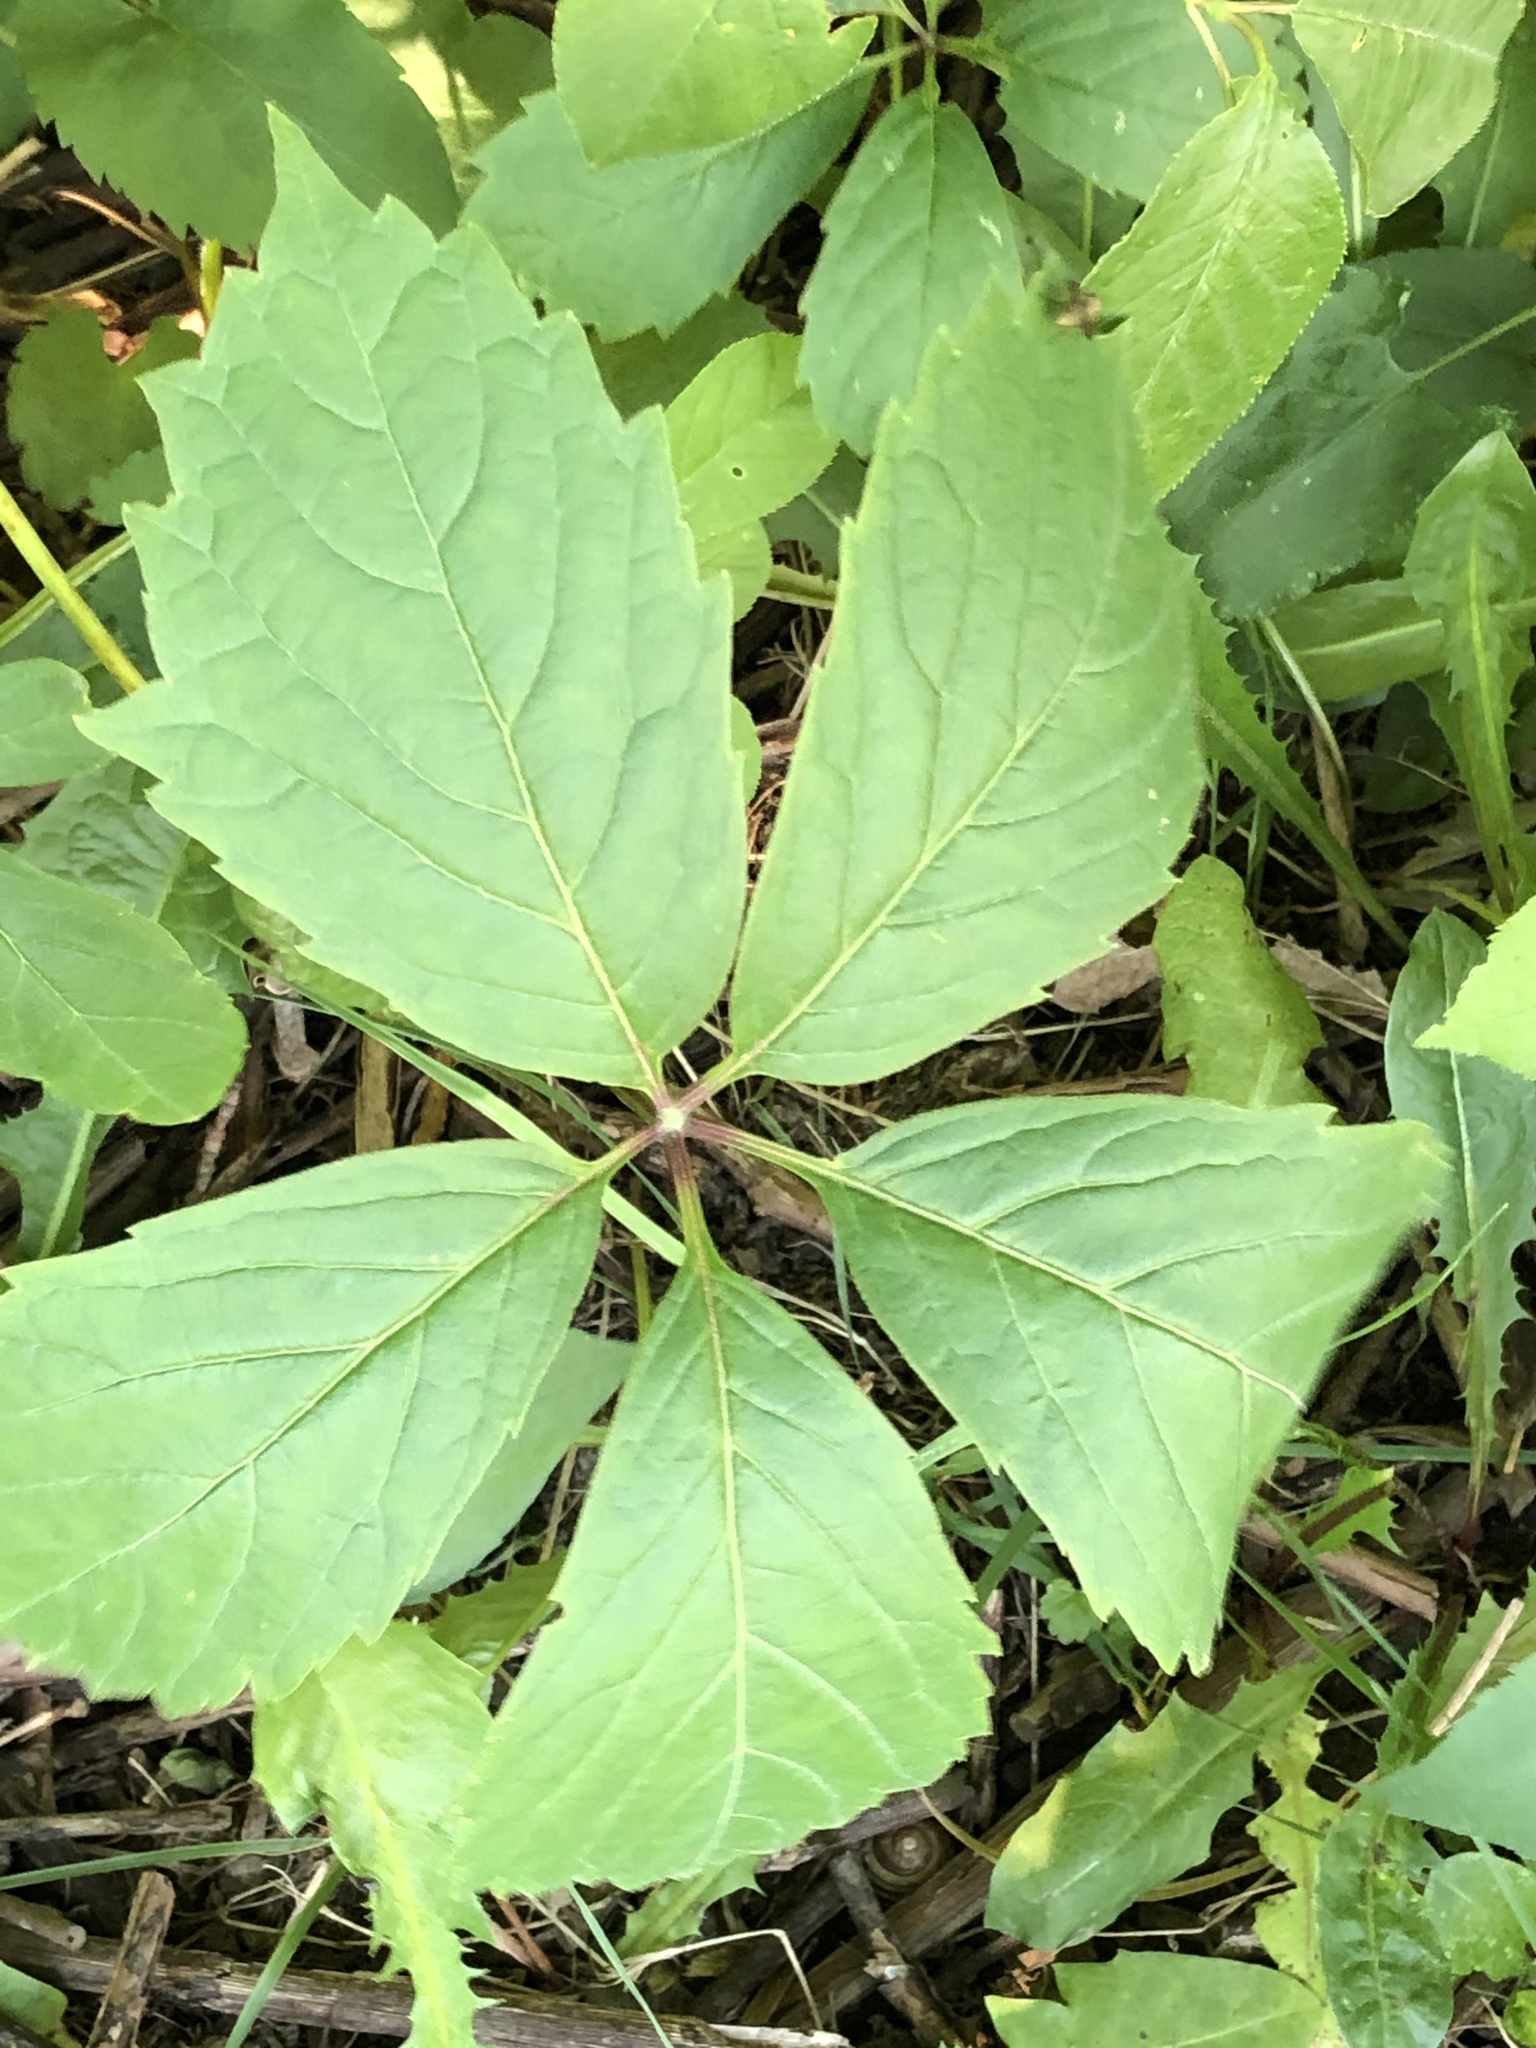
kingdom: Plantae
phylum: Tracheophyta
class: Magnoliopsida
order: Vitales
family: Vitaceae
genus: Parthenocissus
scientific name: Parthenocissus quinquefolia
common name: Virginia-creeper
